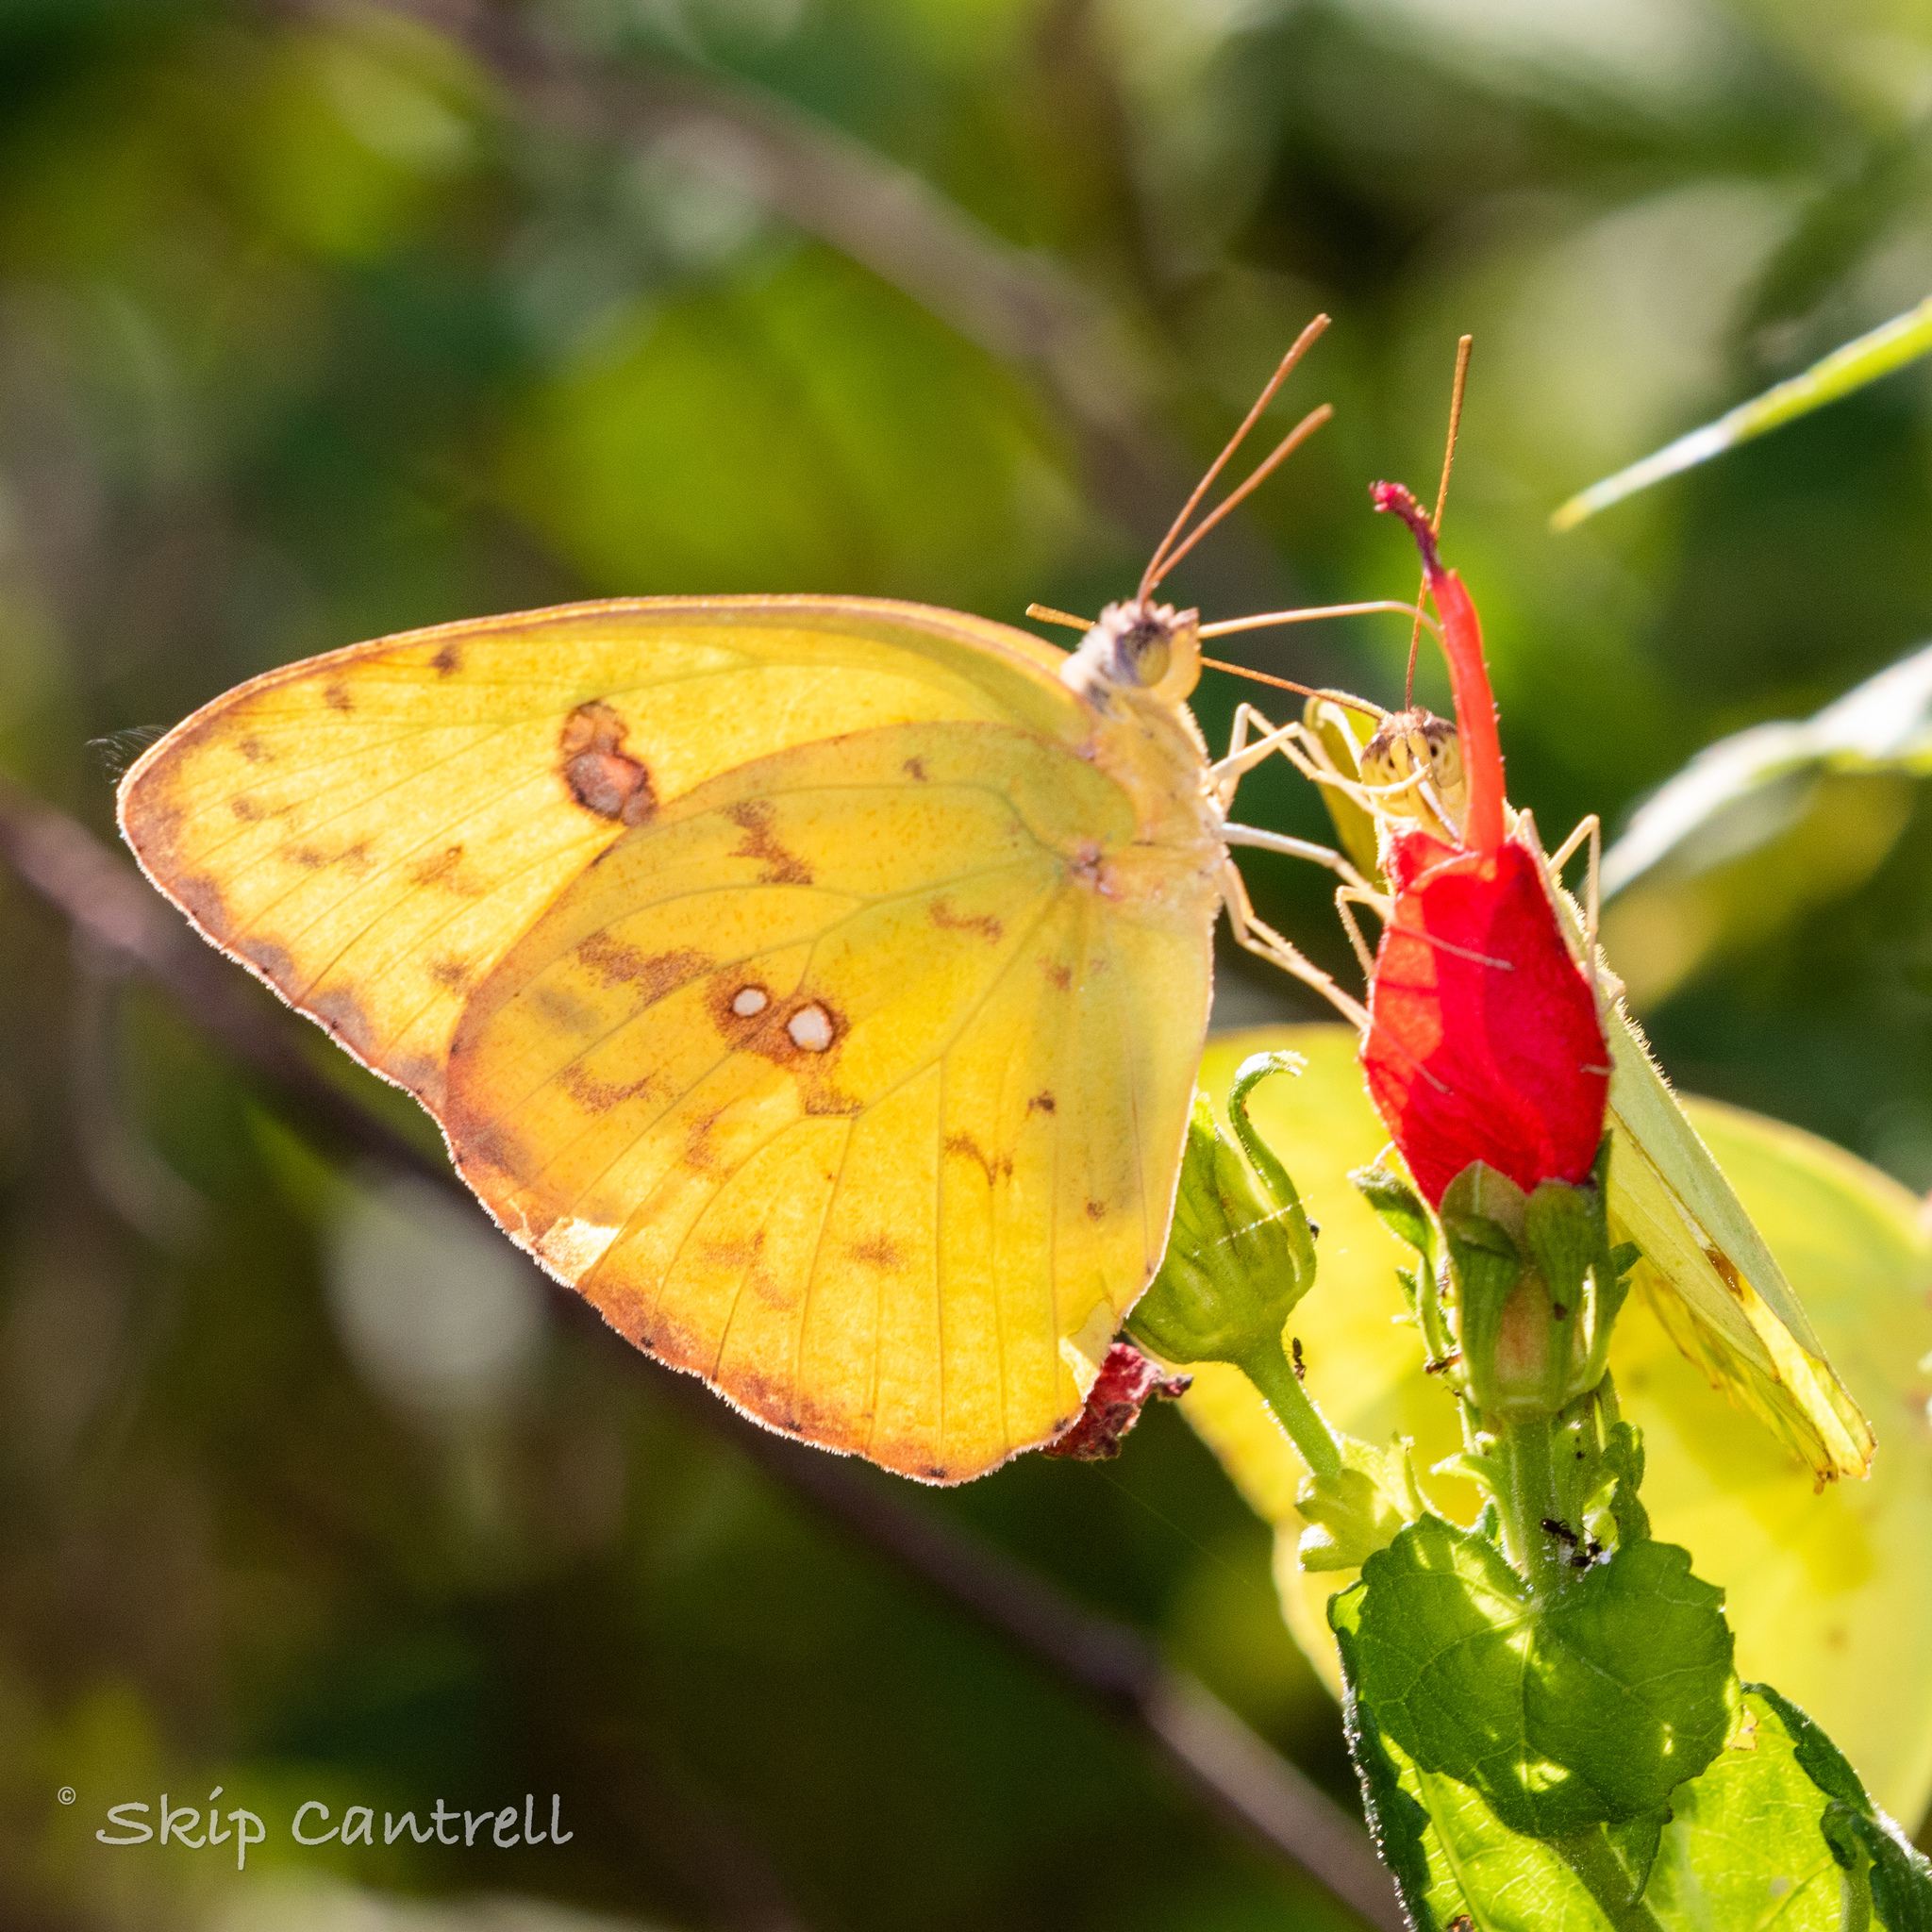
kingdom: Animalia
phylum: Arthropoda
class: Insecta
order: Lepidoptera
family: Pieridae
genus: Phoebis
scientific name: Phoebis sennae
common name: Cloudless sulphur
